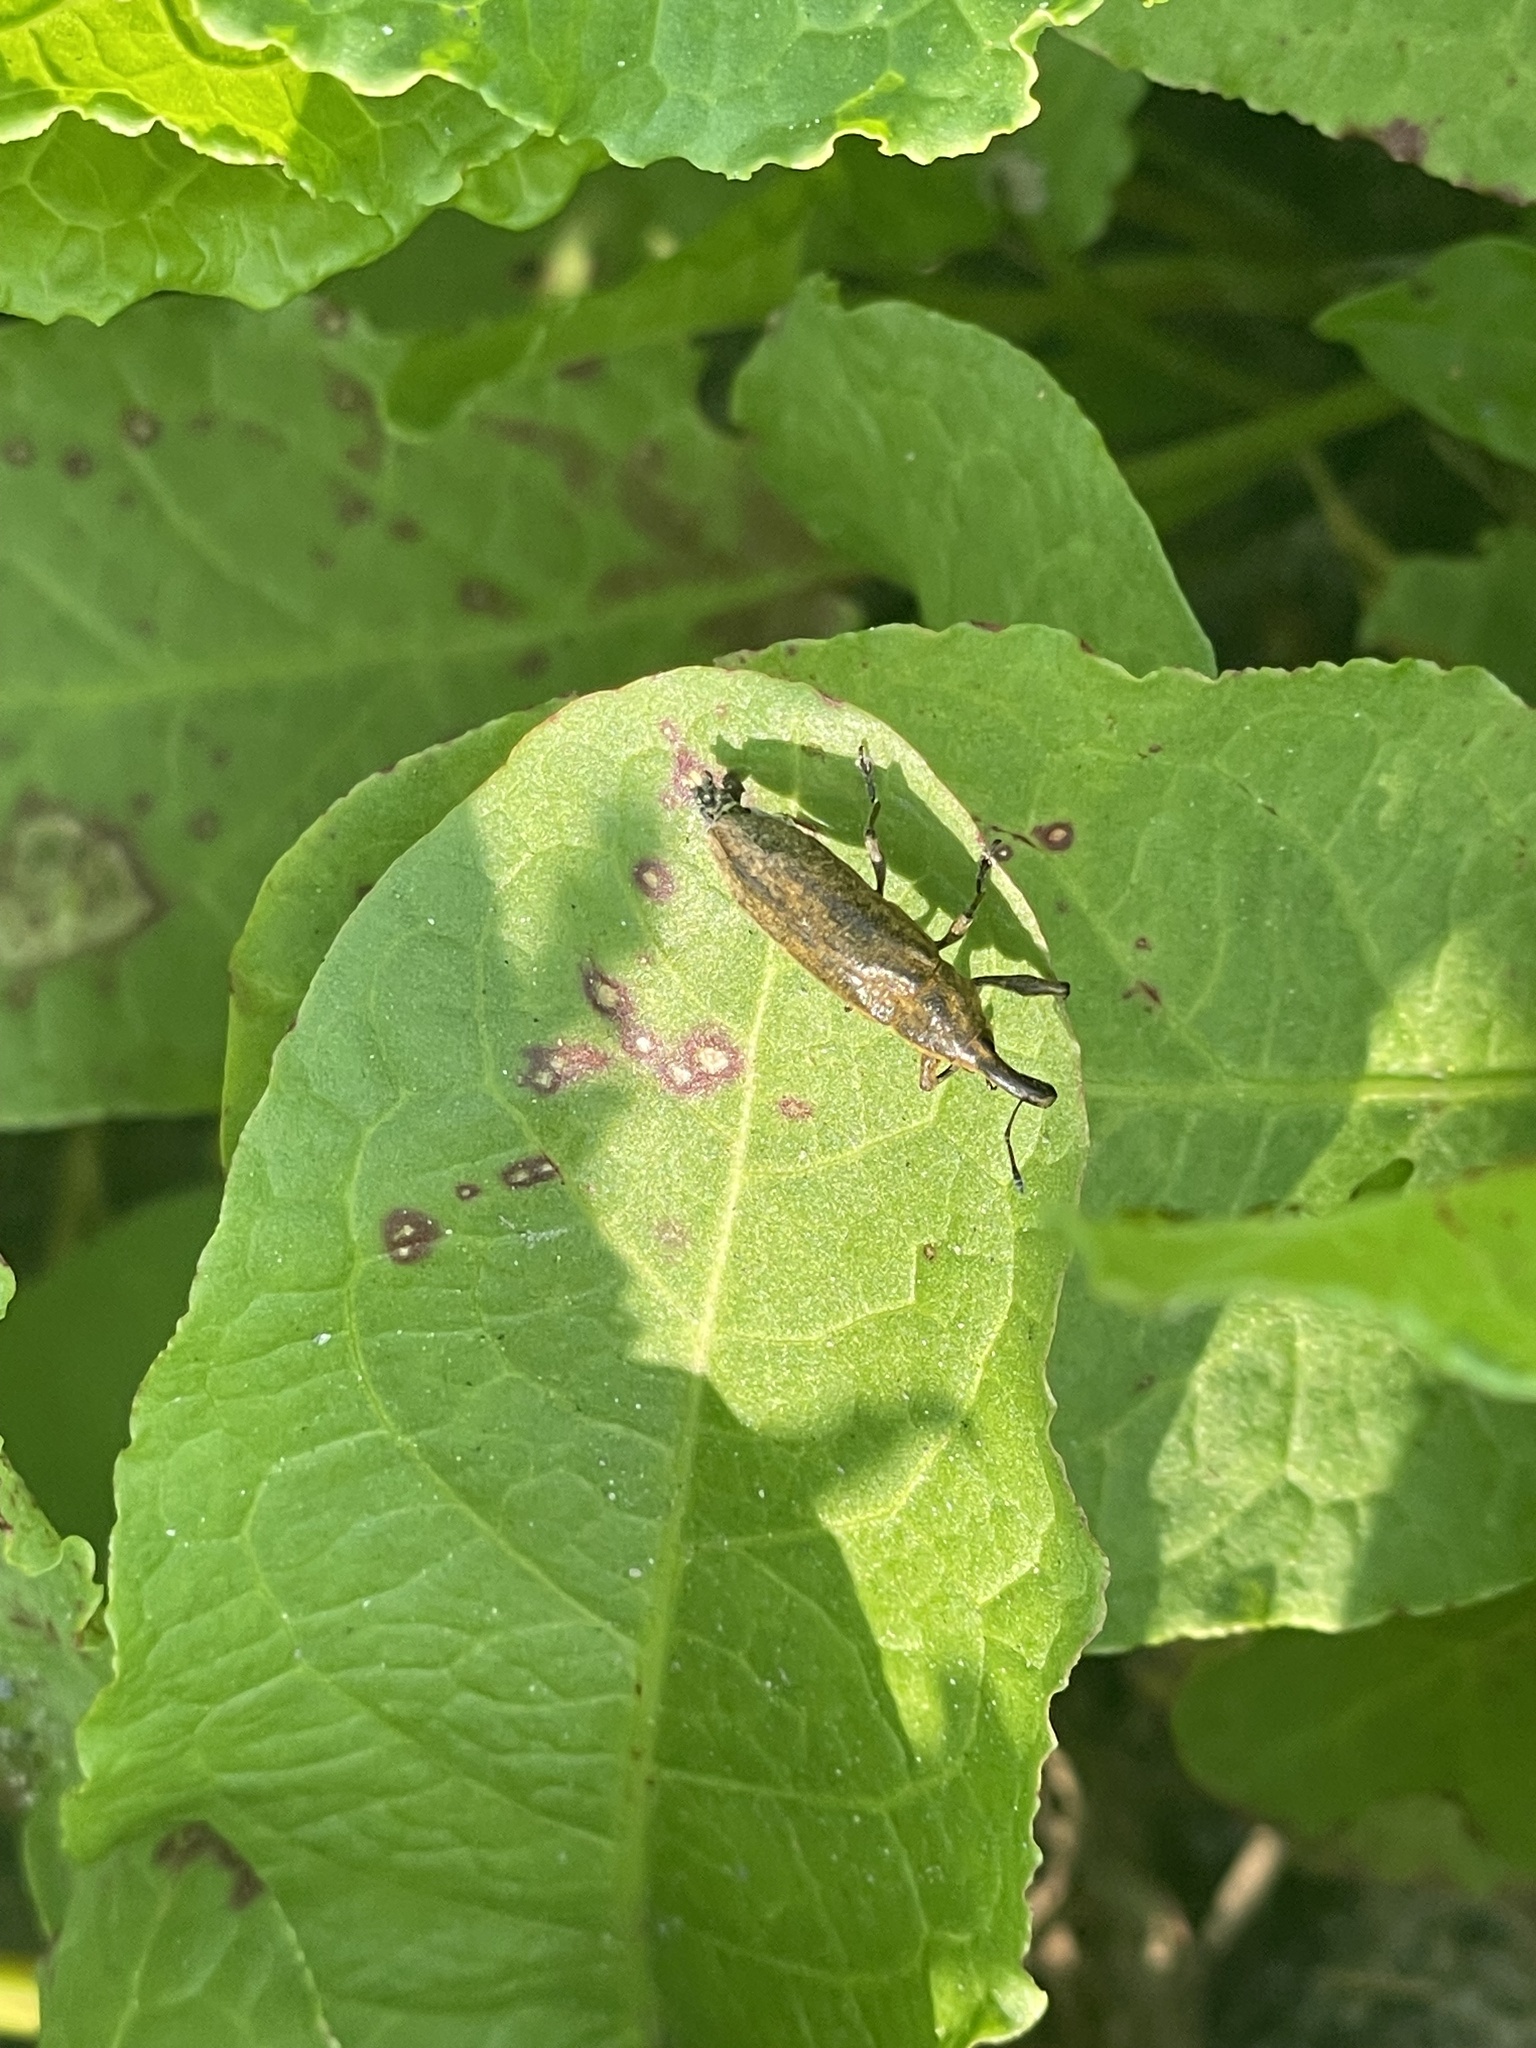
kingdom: Animalia
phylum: Arthropoda
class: Insecta
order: Coleoptera
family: Curculionidae
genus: Lixus
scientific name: Lixus concavus
